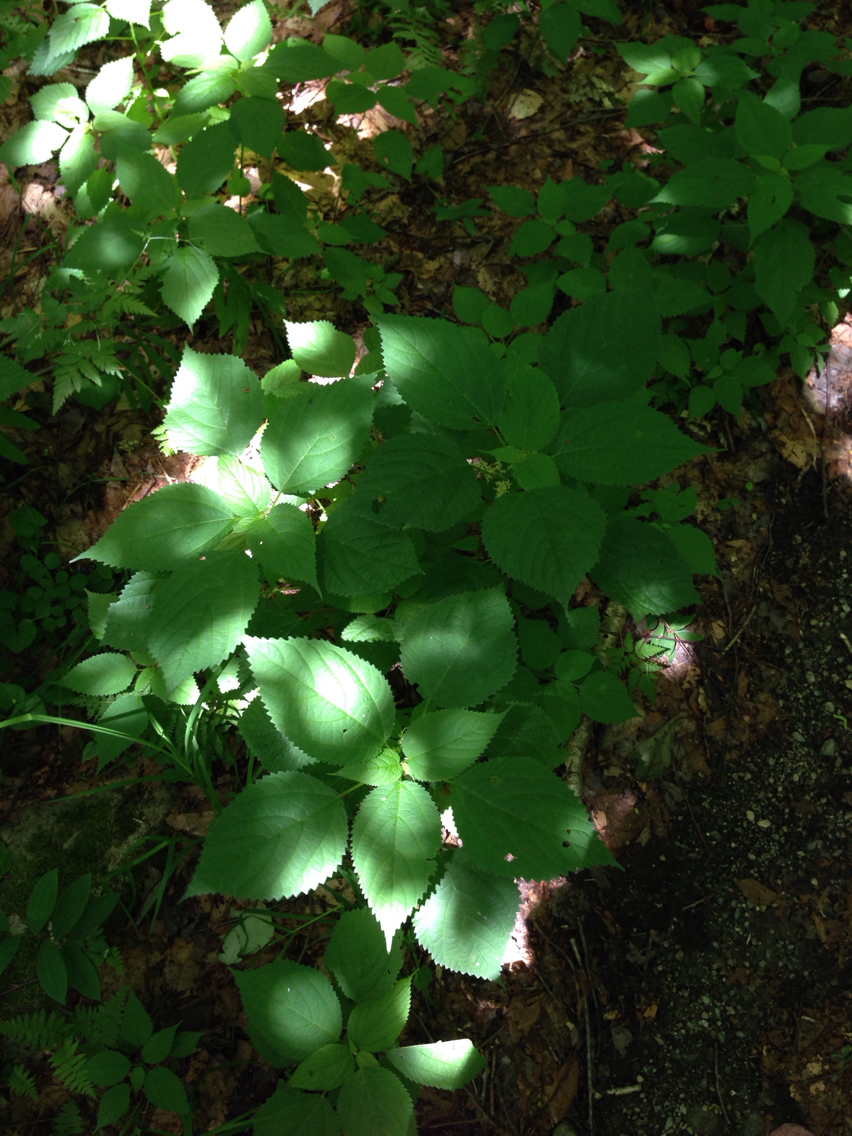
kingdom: Plantae
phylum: Tracheophyta
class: Magnoliopsida
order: Rosales
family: Urticaceae
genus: Laportea
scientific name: Laportea canadensis
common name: Canada nettle
